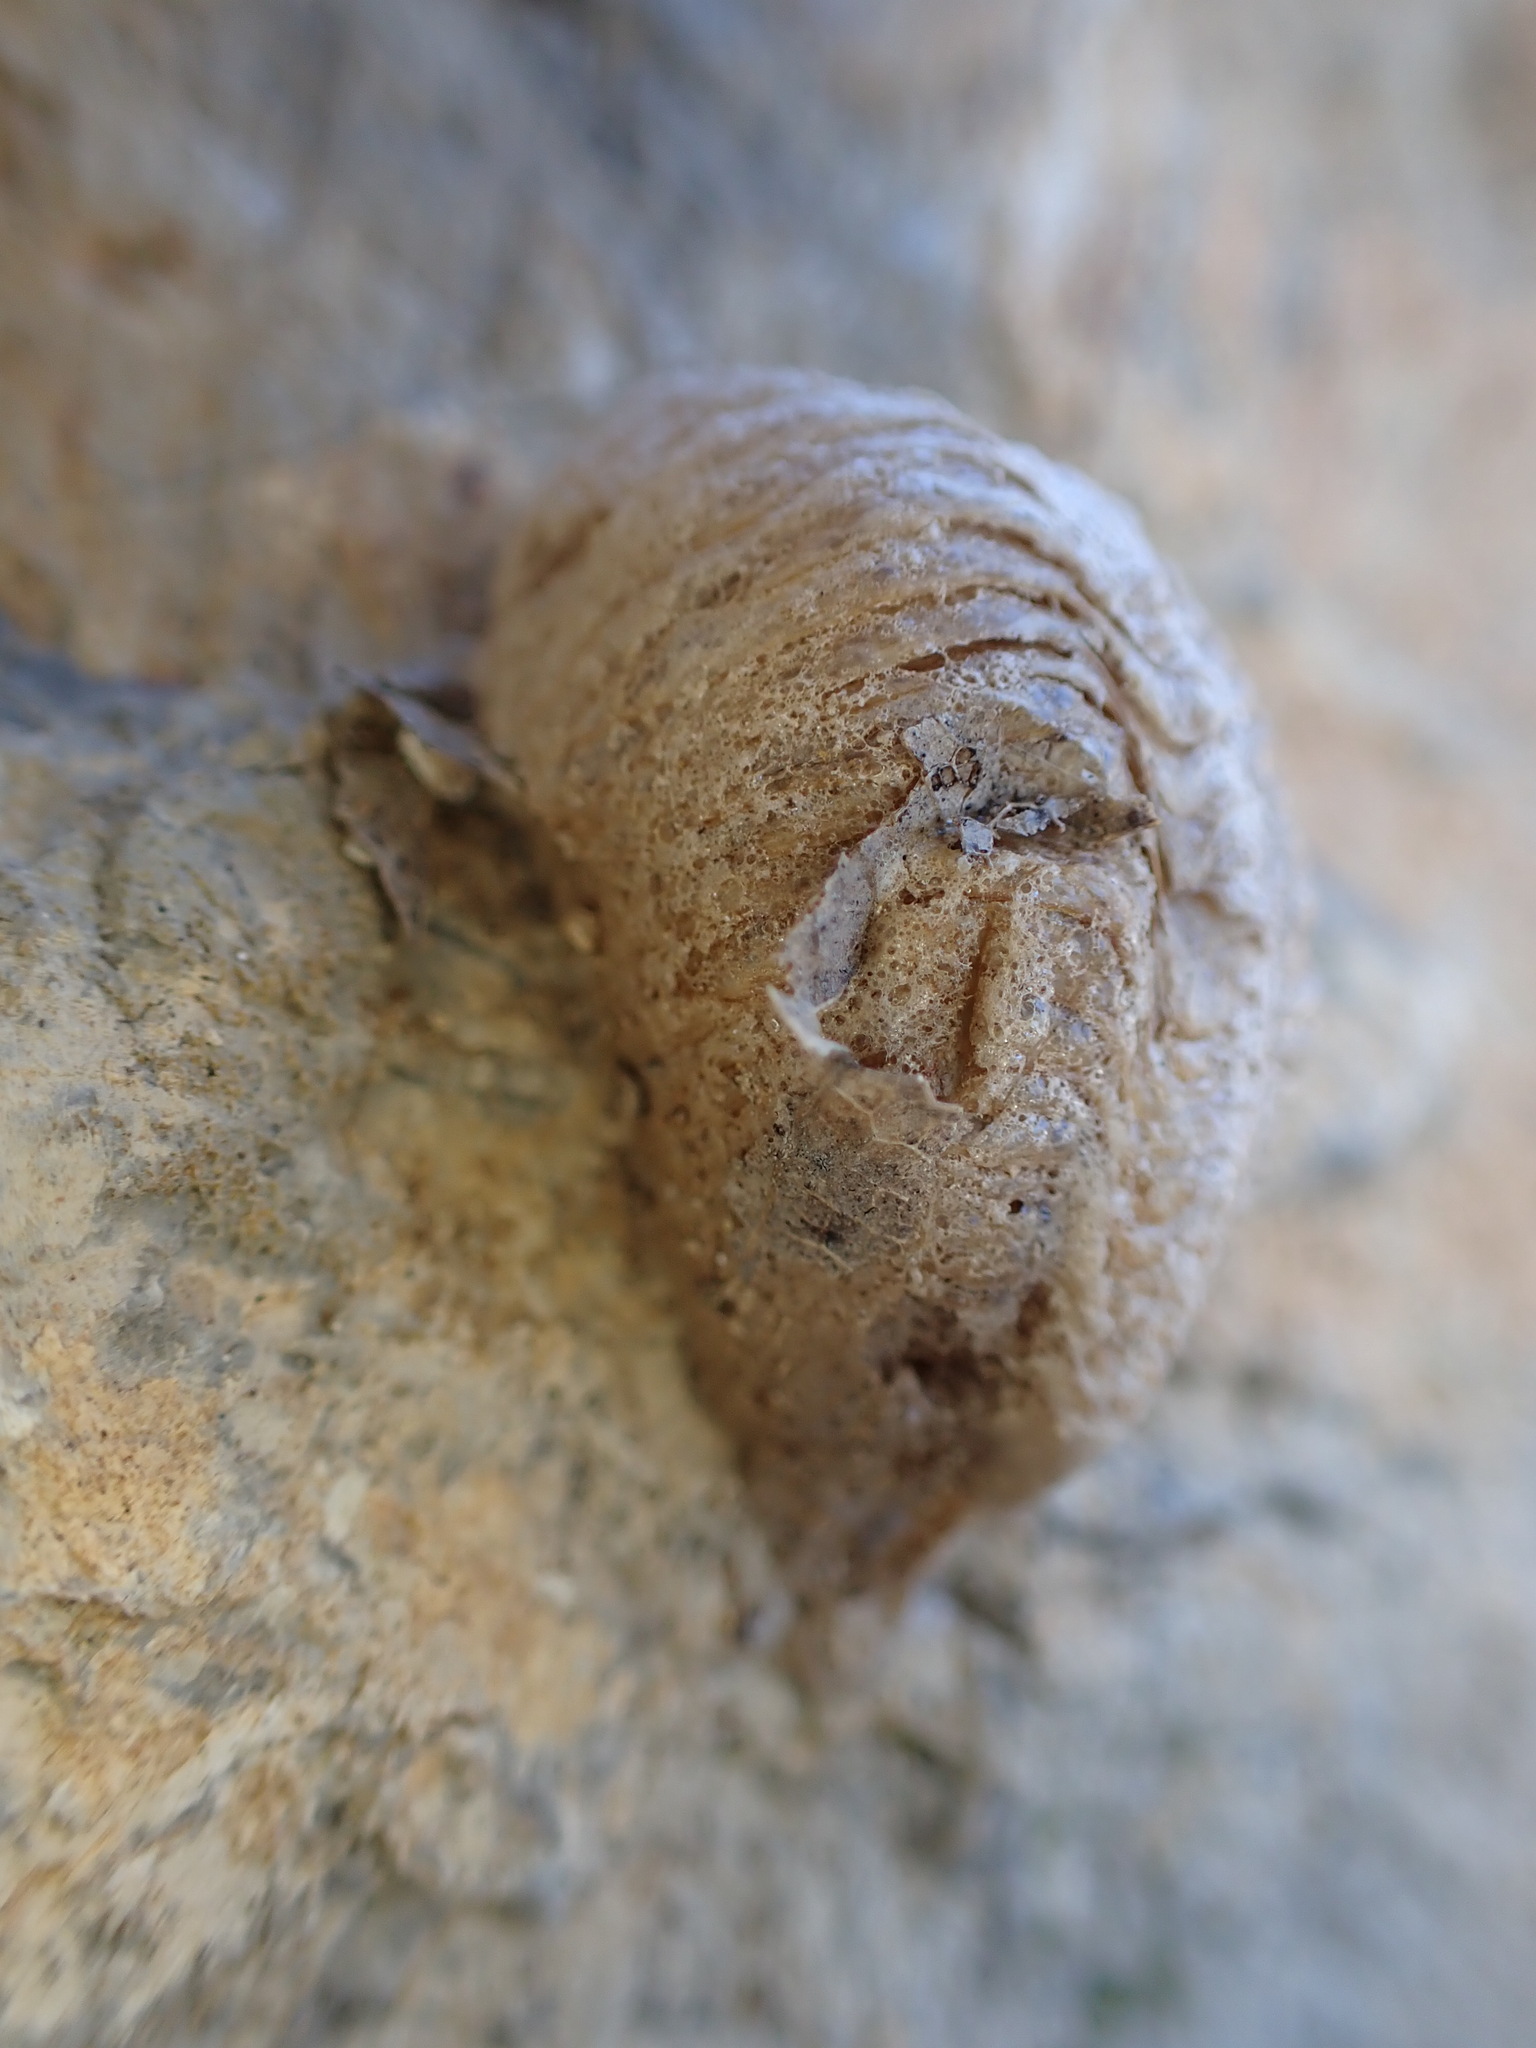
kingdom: Animalia
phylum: Arthropoda
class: Insecta
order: Mantodea
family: Mantidae
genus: Mantis
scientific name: Mantis religiosa
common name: Praying mantis
